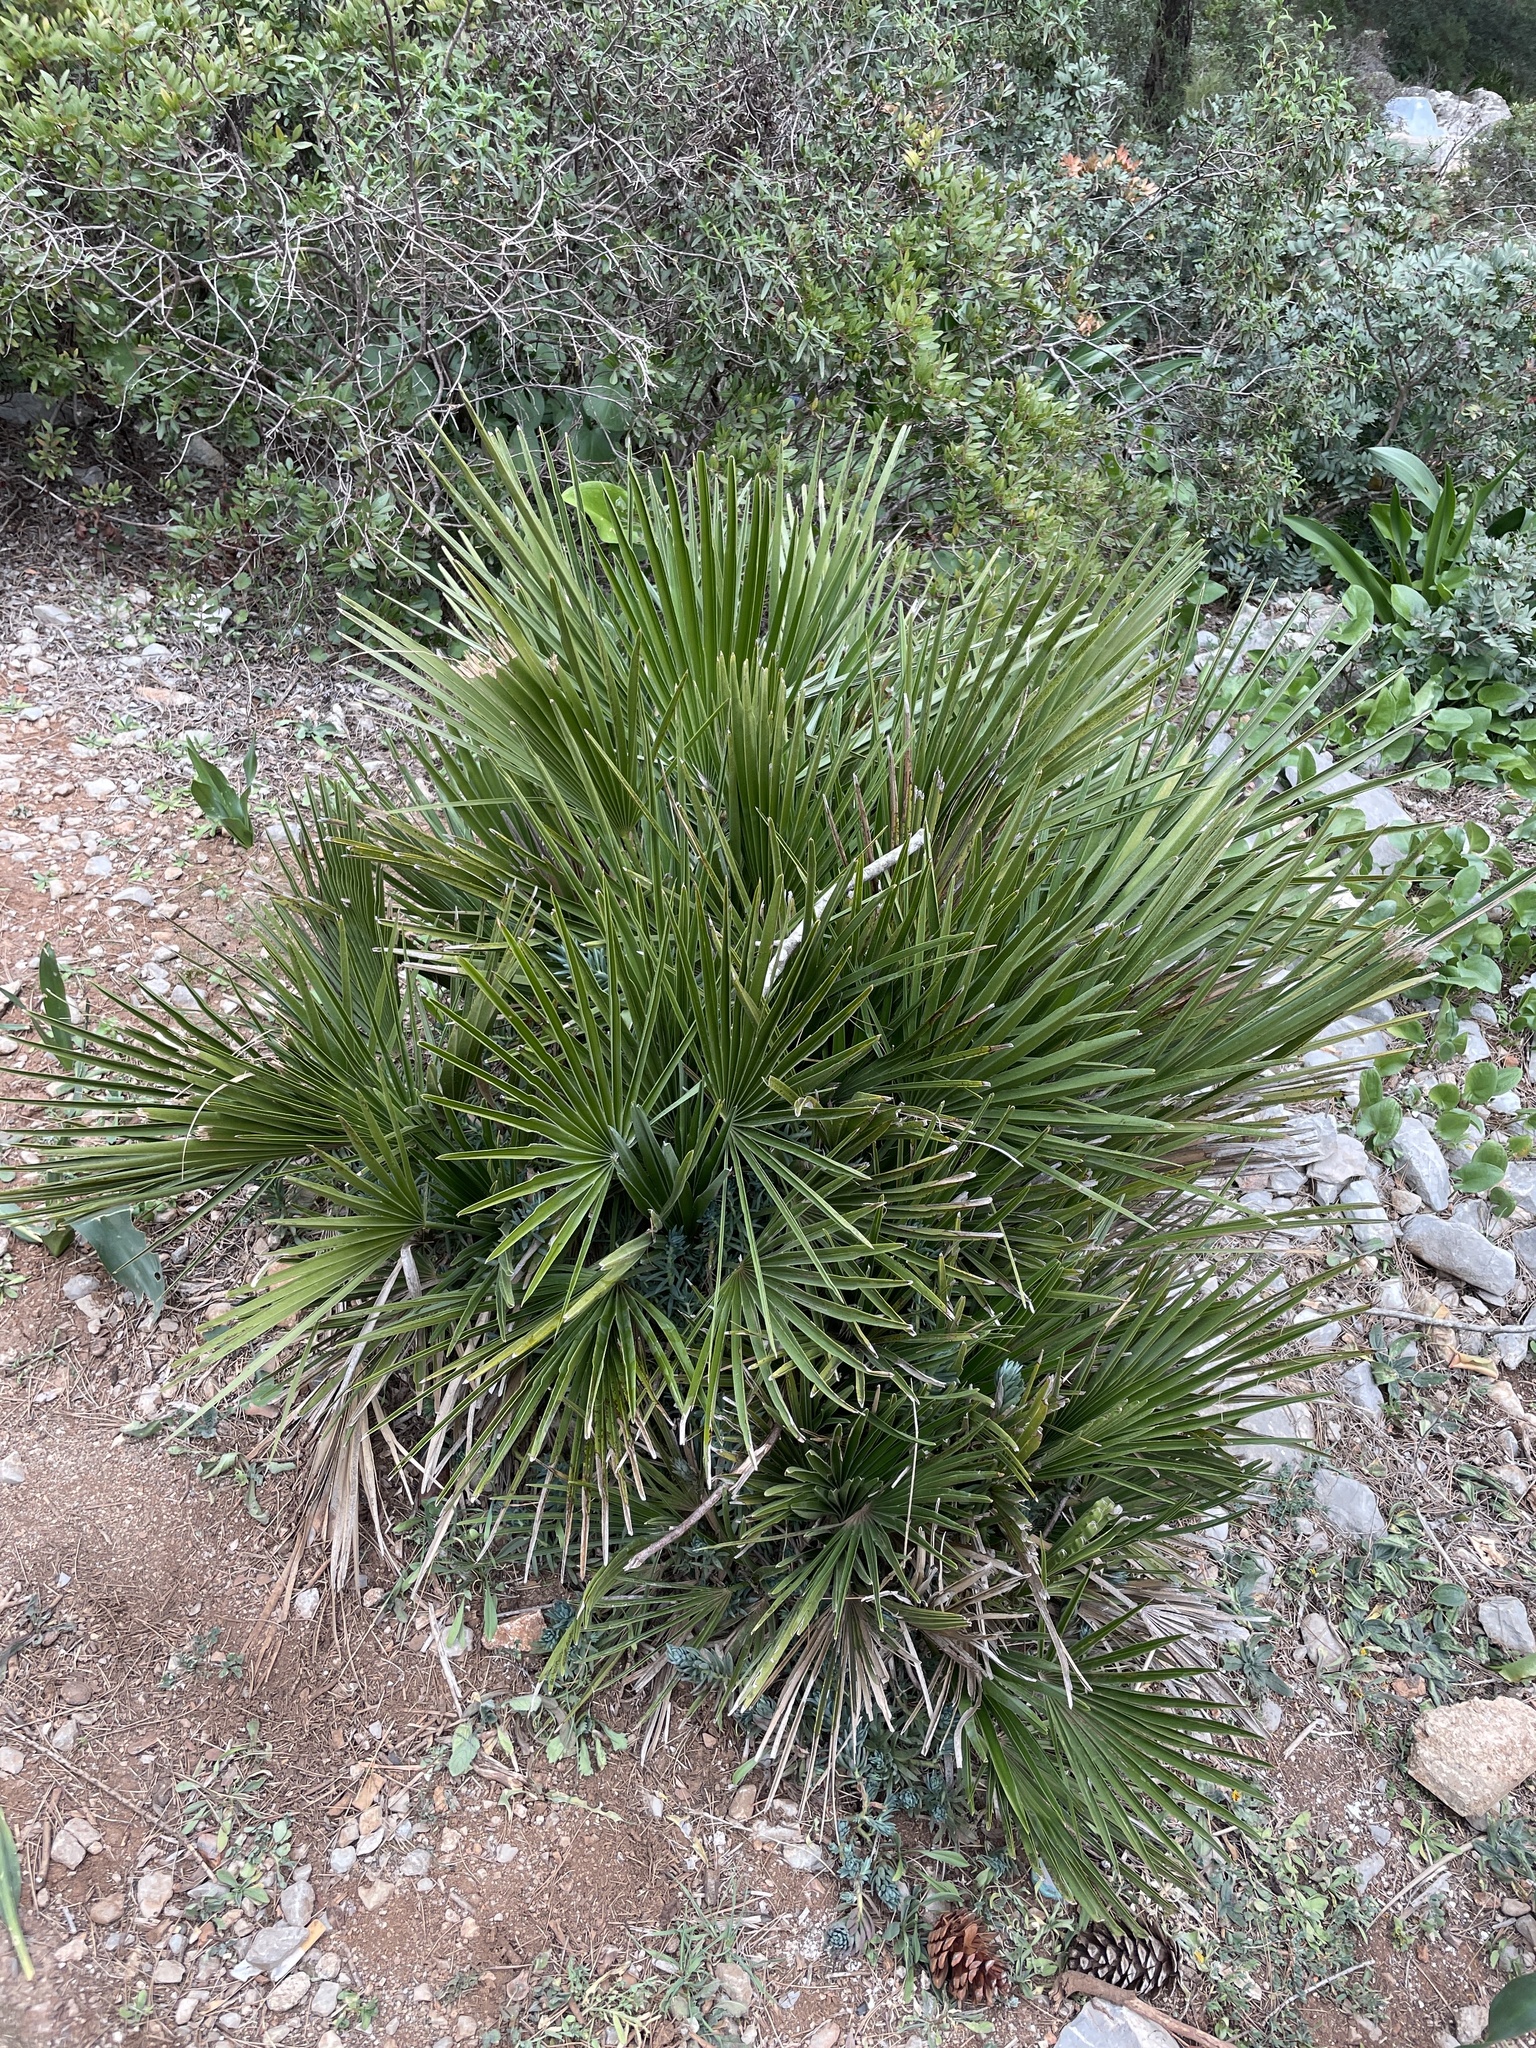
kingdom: Plantae
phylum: Tracheophyta
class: Liliopsida
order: Arecales
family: Arecaceae
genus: Chamaerops
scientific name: Chamaerops humilis
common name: Dwarf fan palm
